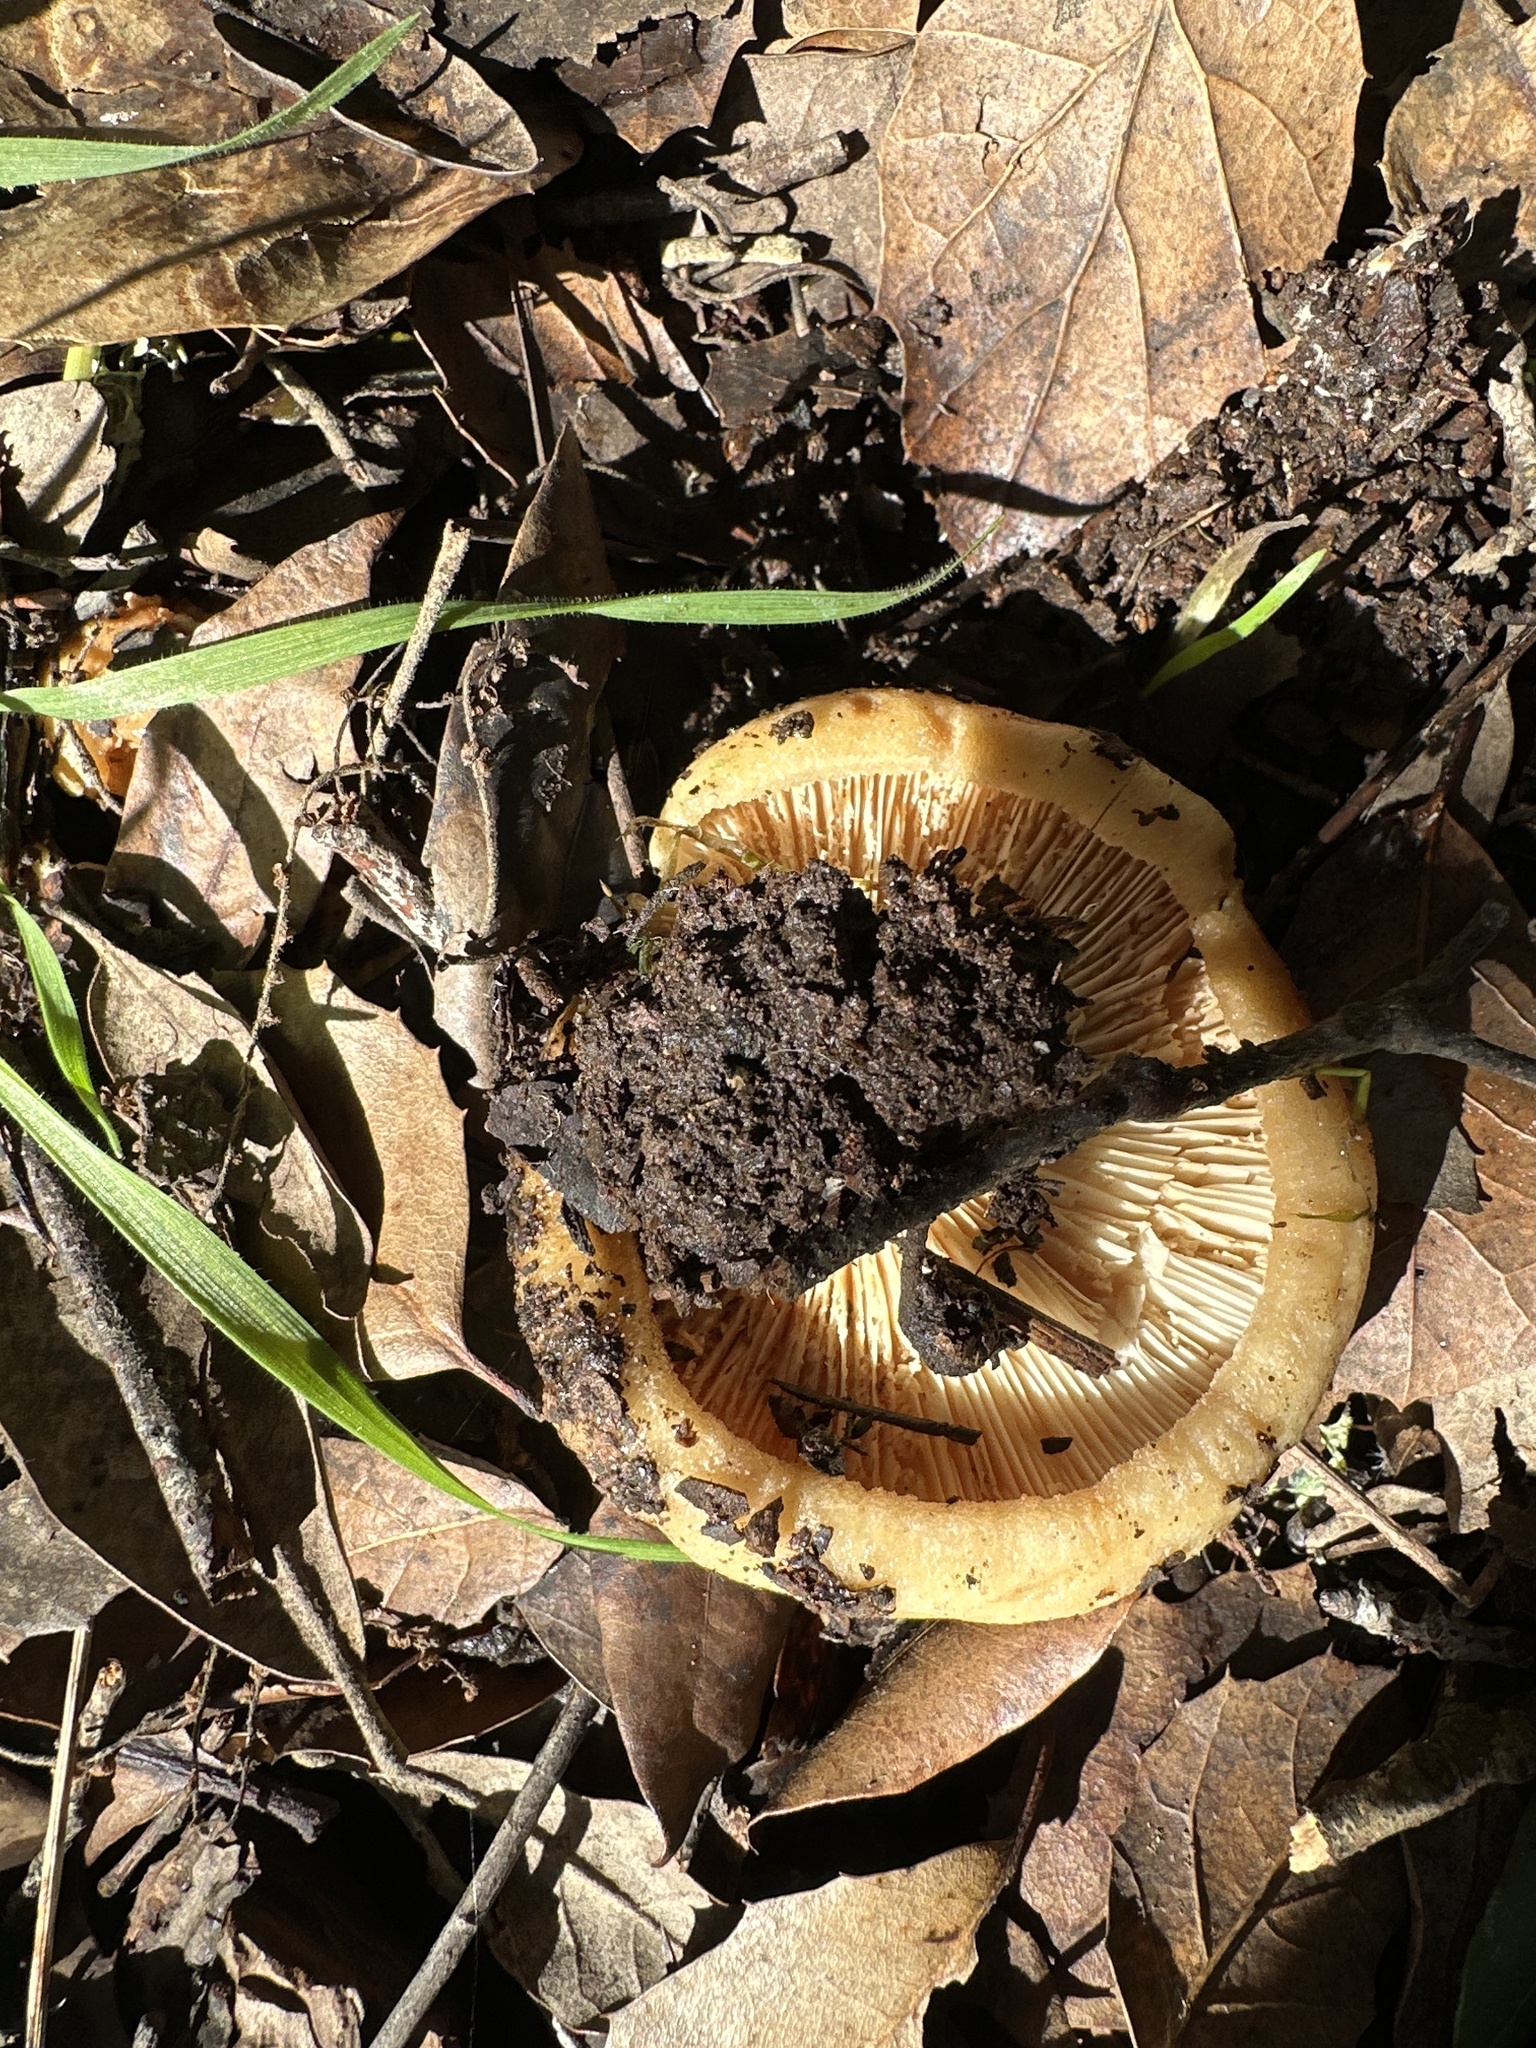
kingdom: Fungi
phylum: Basidiomycota
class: Agaricomycetes
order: Russulales
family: Russulaceae
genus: Lactarius
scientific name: Lactarius alnicola
